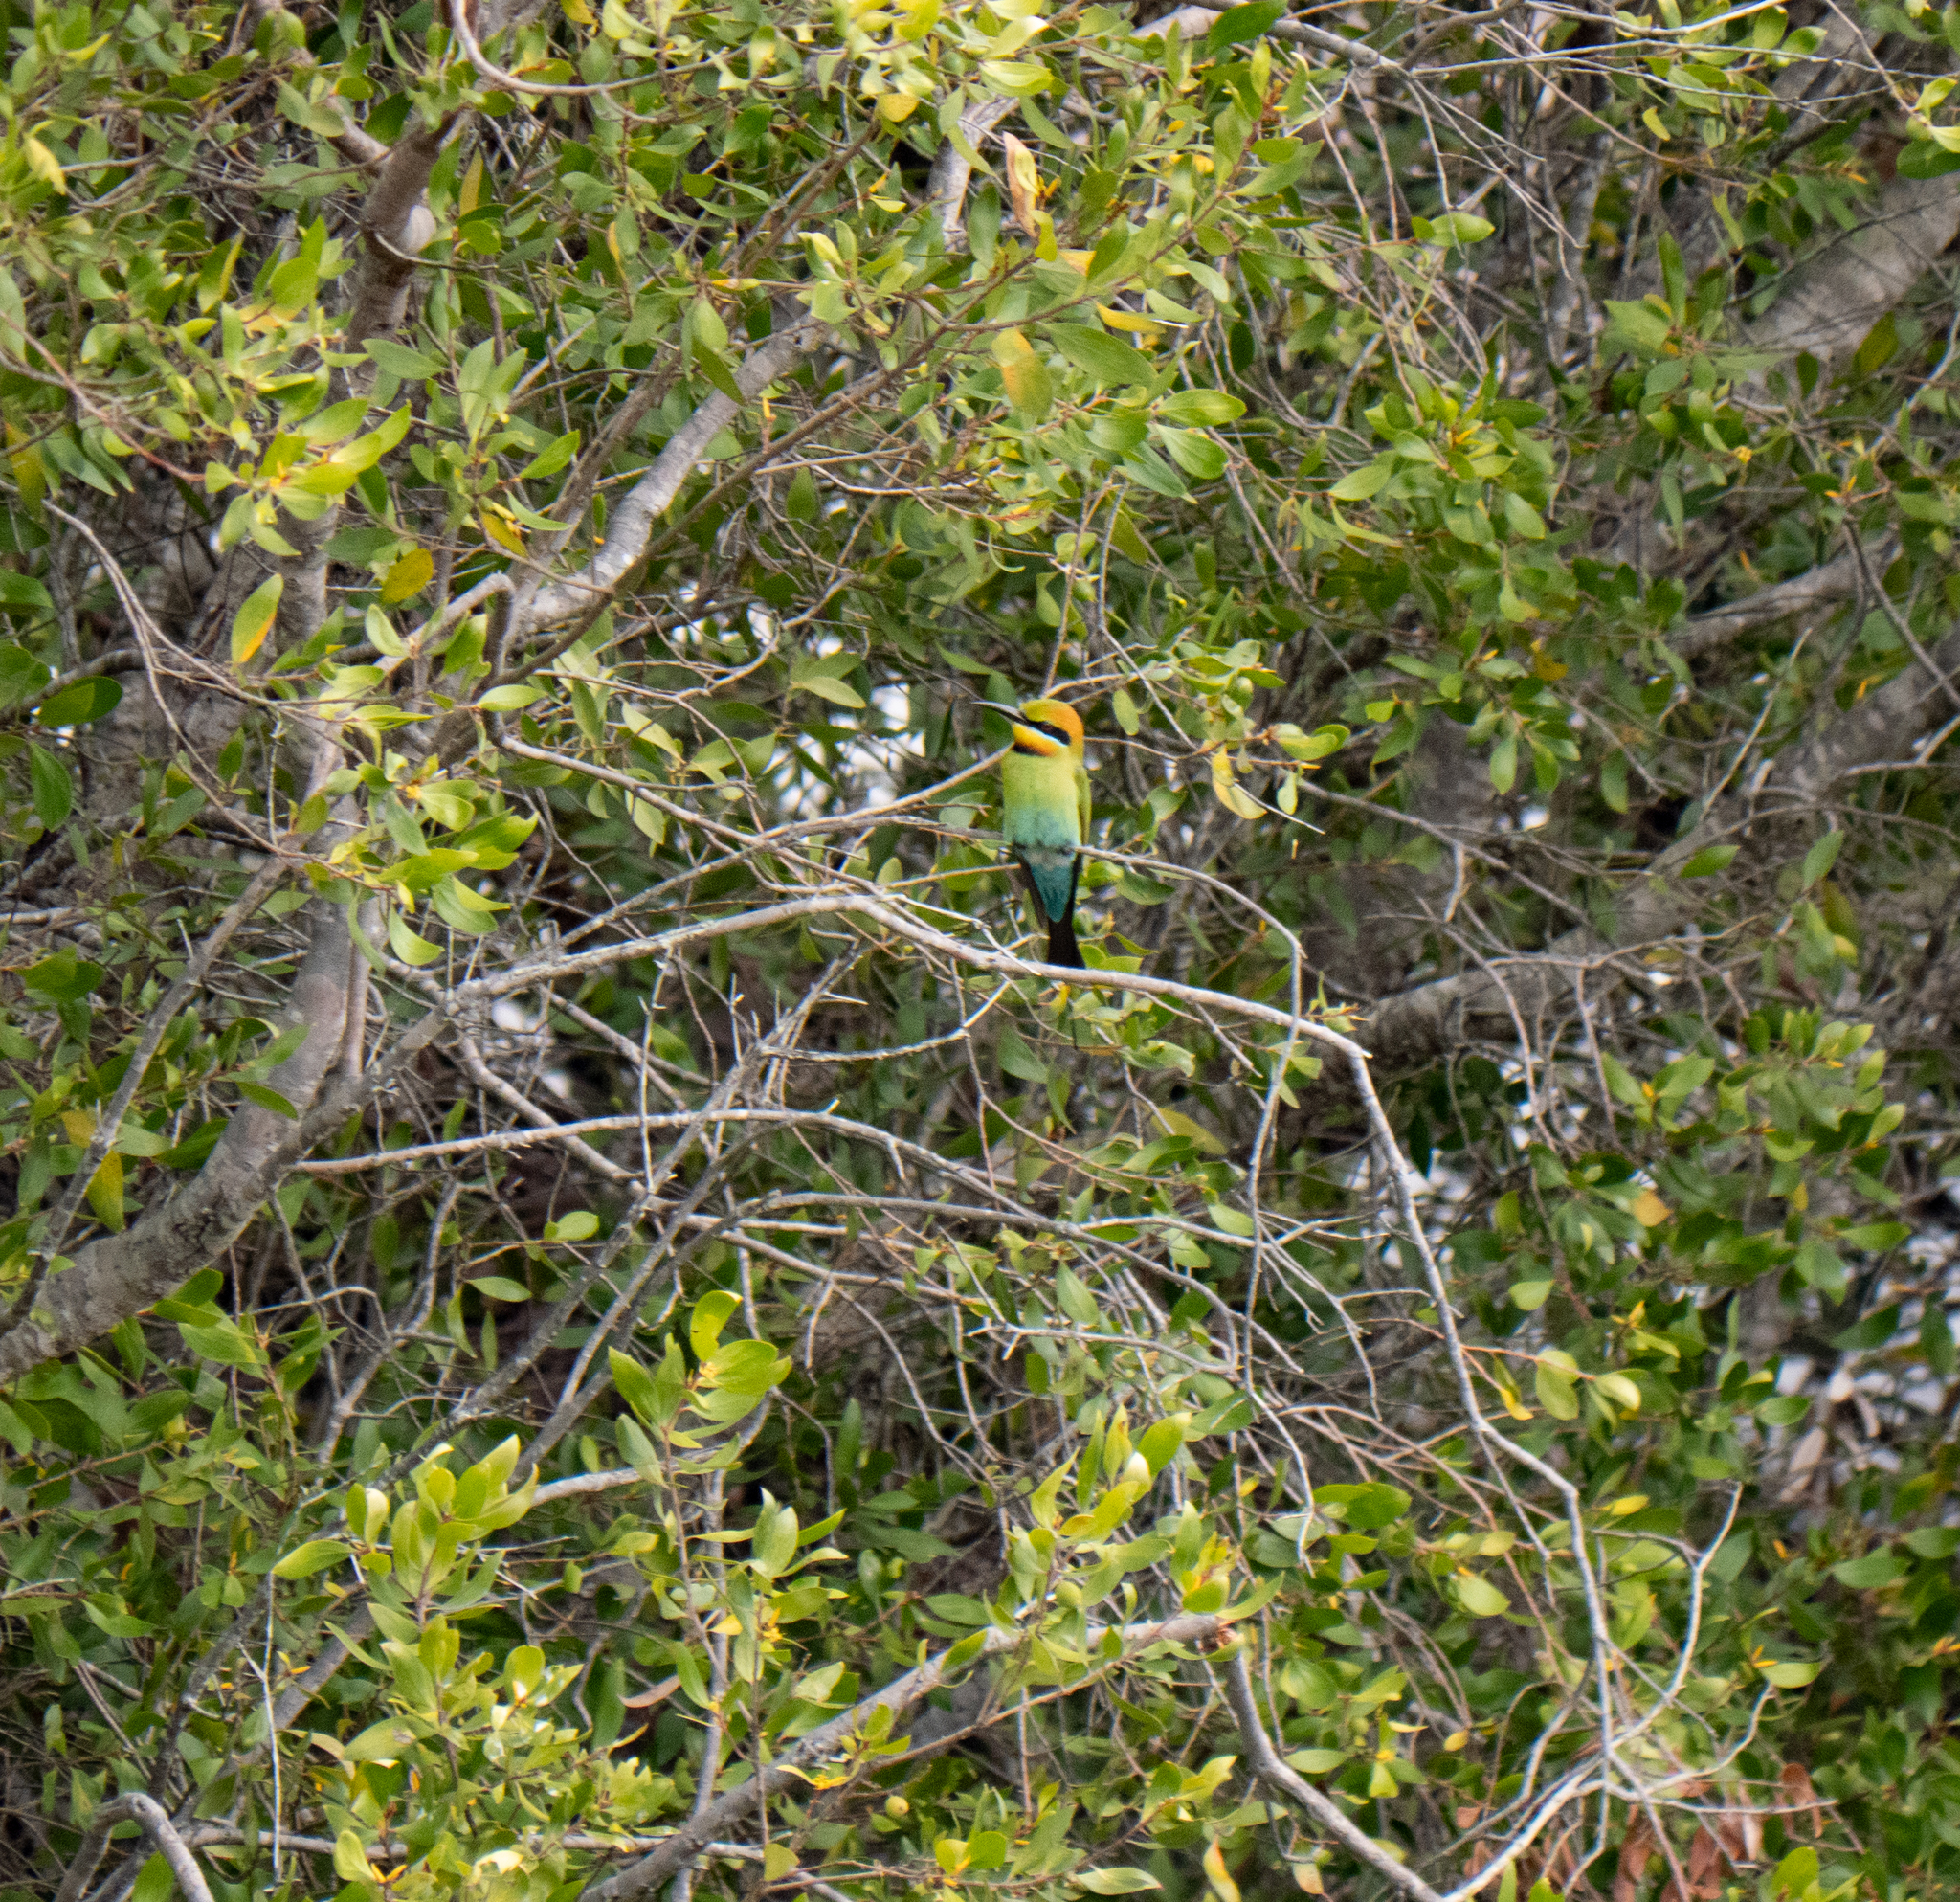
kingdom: Animalia
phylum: Chordata
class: Aves
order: Coraciiformes
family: Meropidae
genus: Merops
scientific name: Merops ornatus
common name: Rainbow bee-eater
